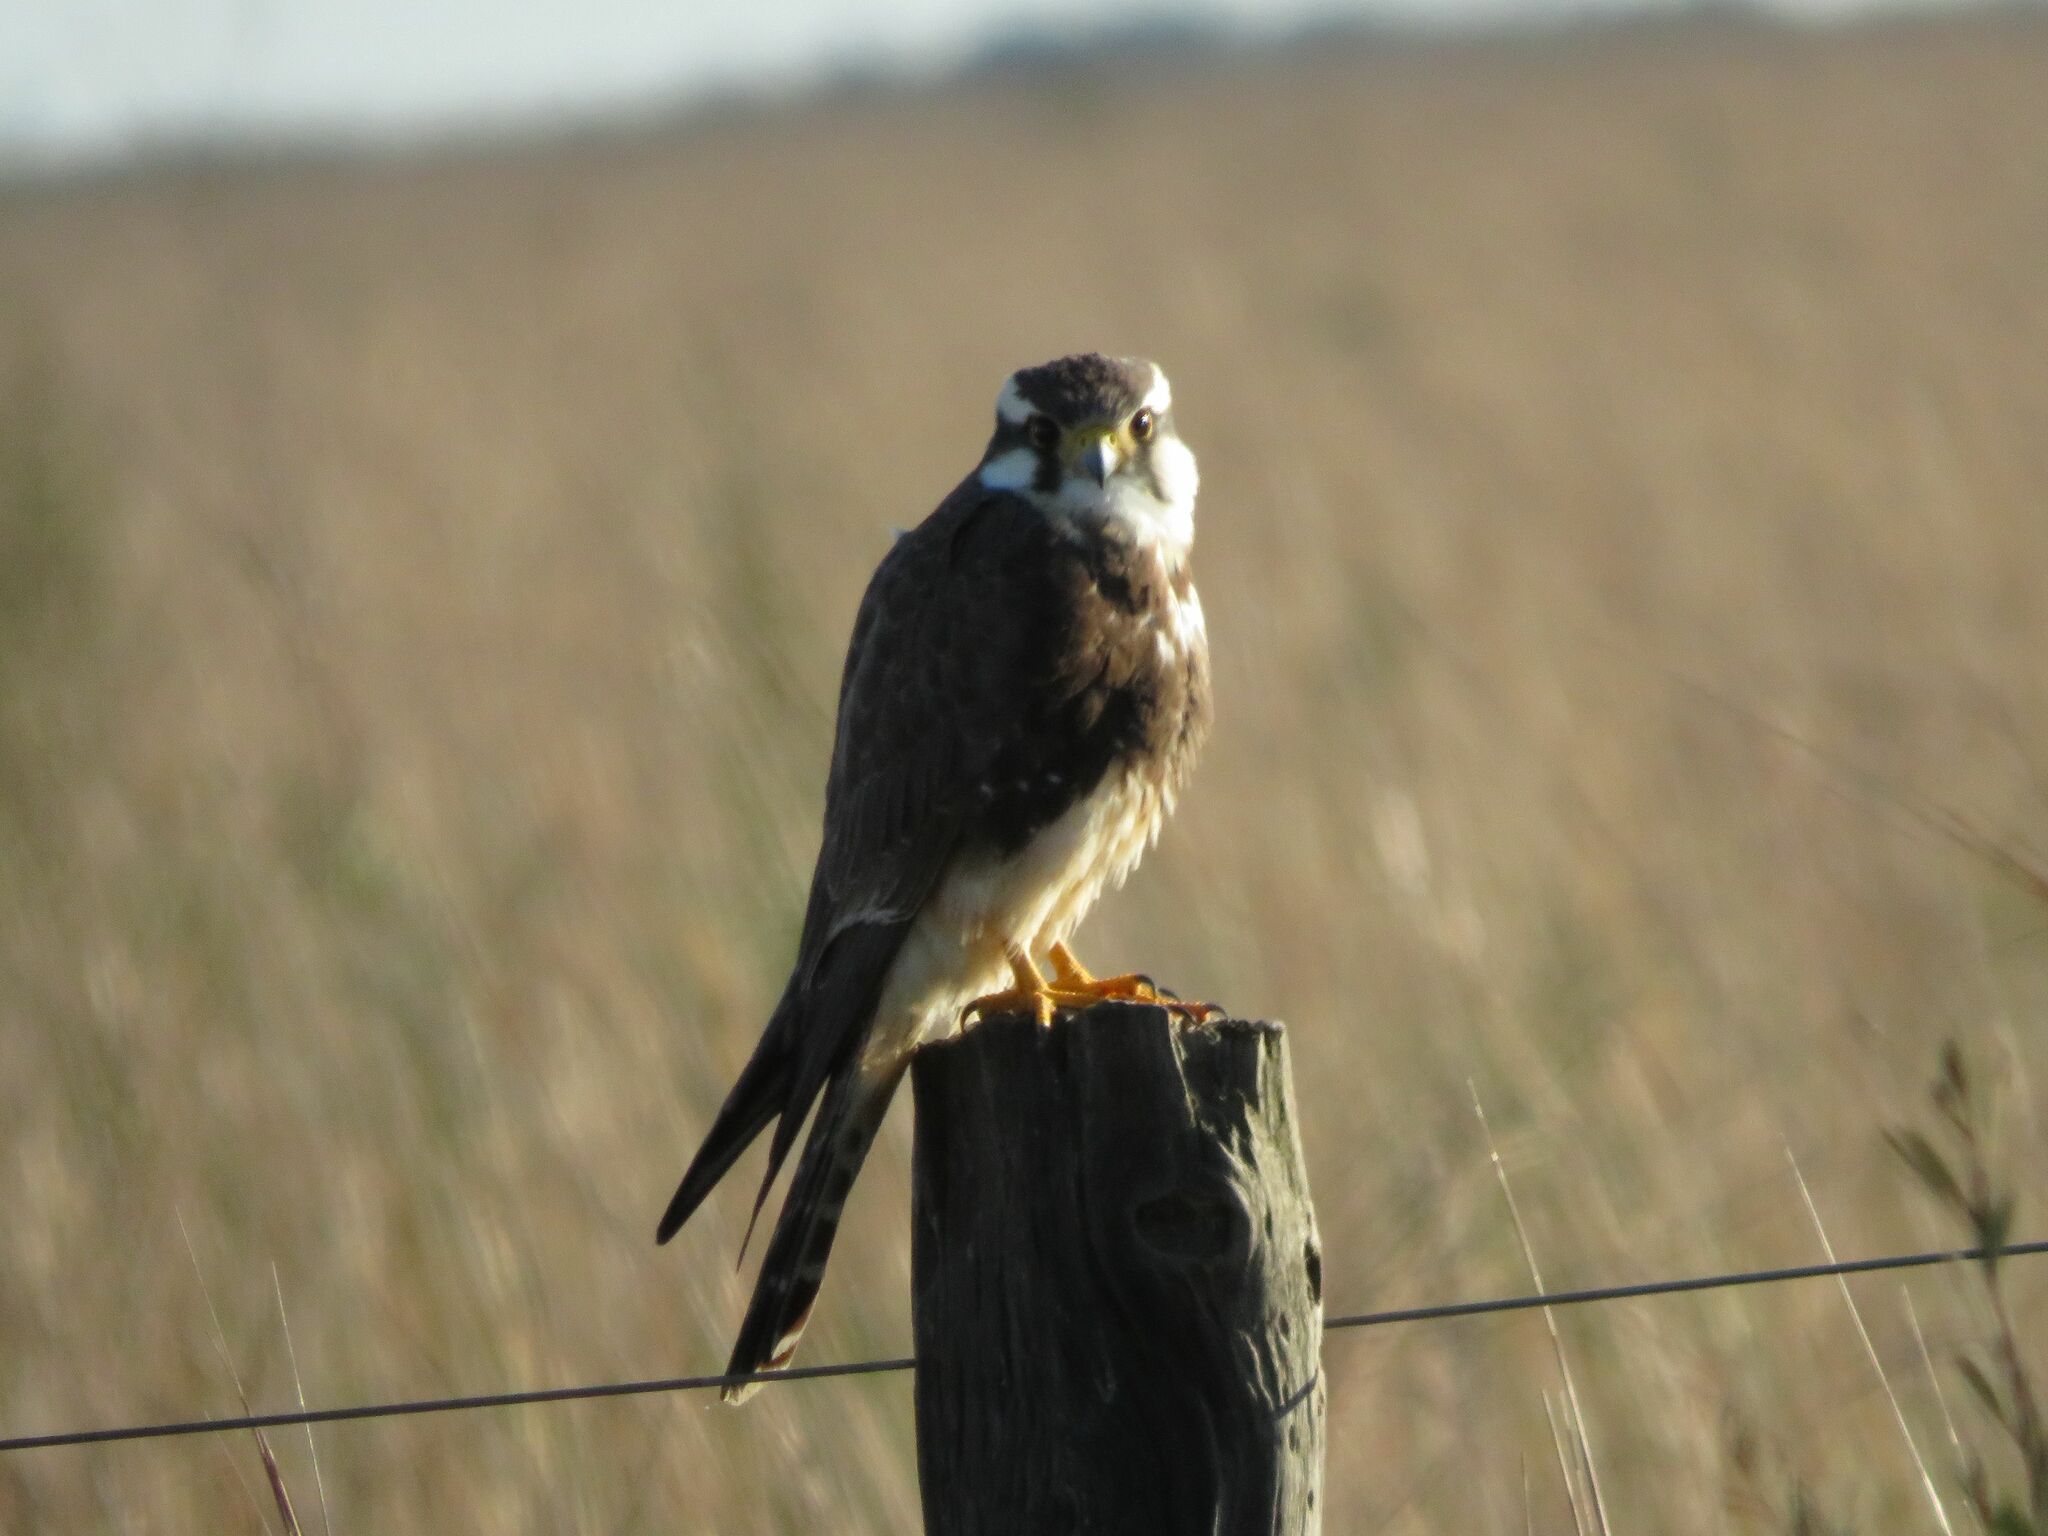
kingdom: Animalia
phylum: Chordata
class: Aves
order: Falconiformes
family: Falconidae
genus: Falco
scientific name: Falco femoralis
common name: Aplomado falcon
